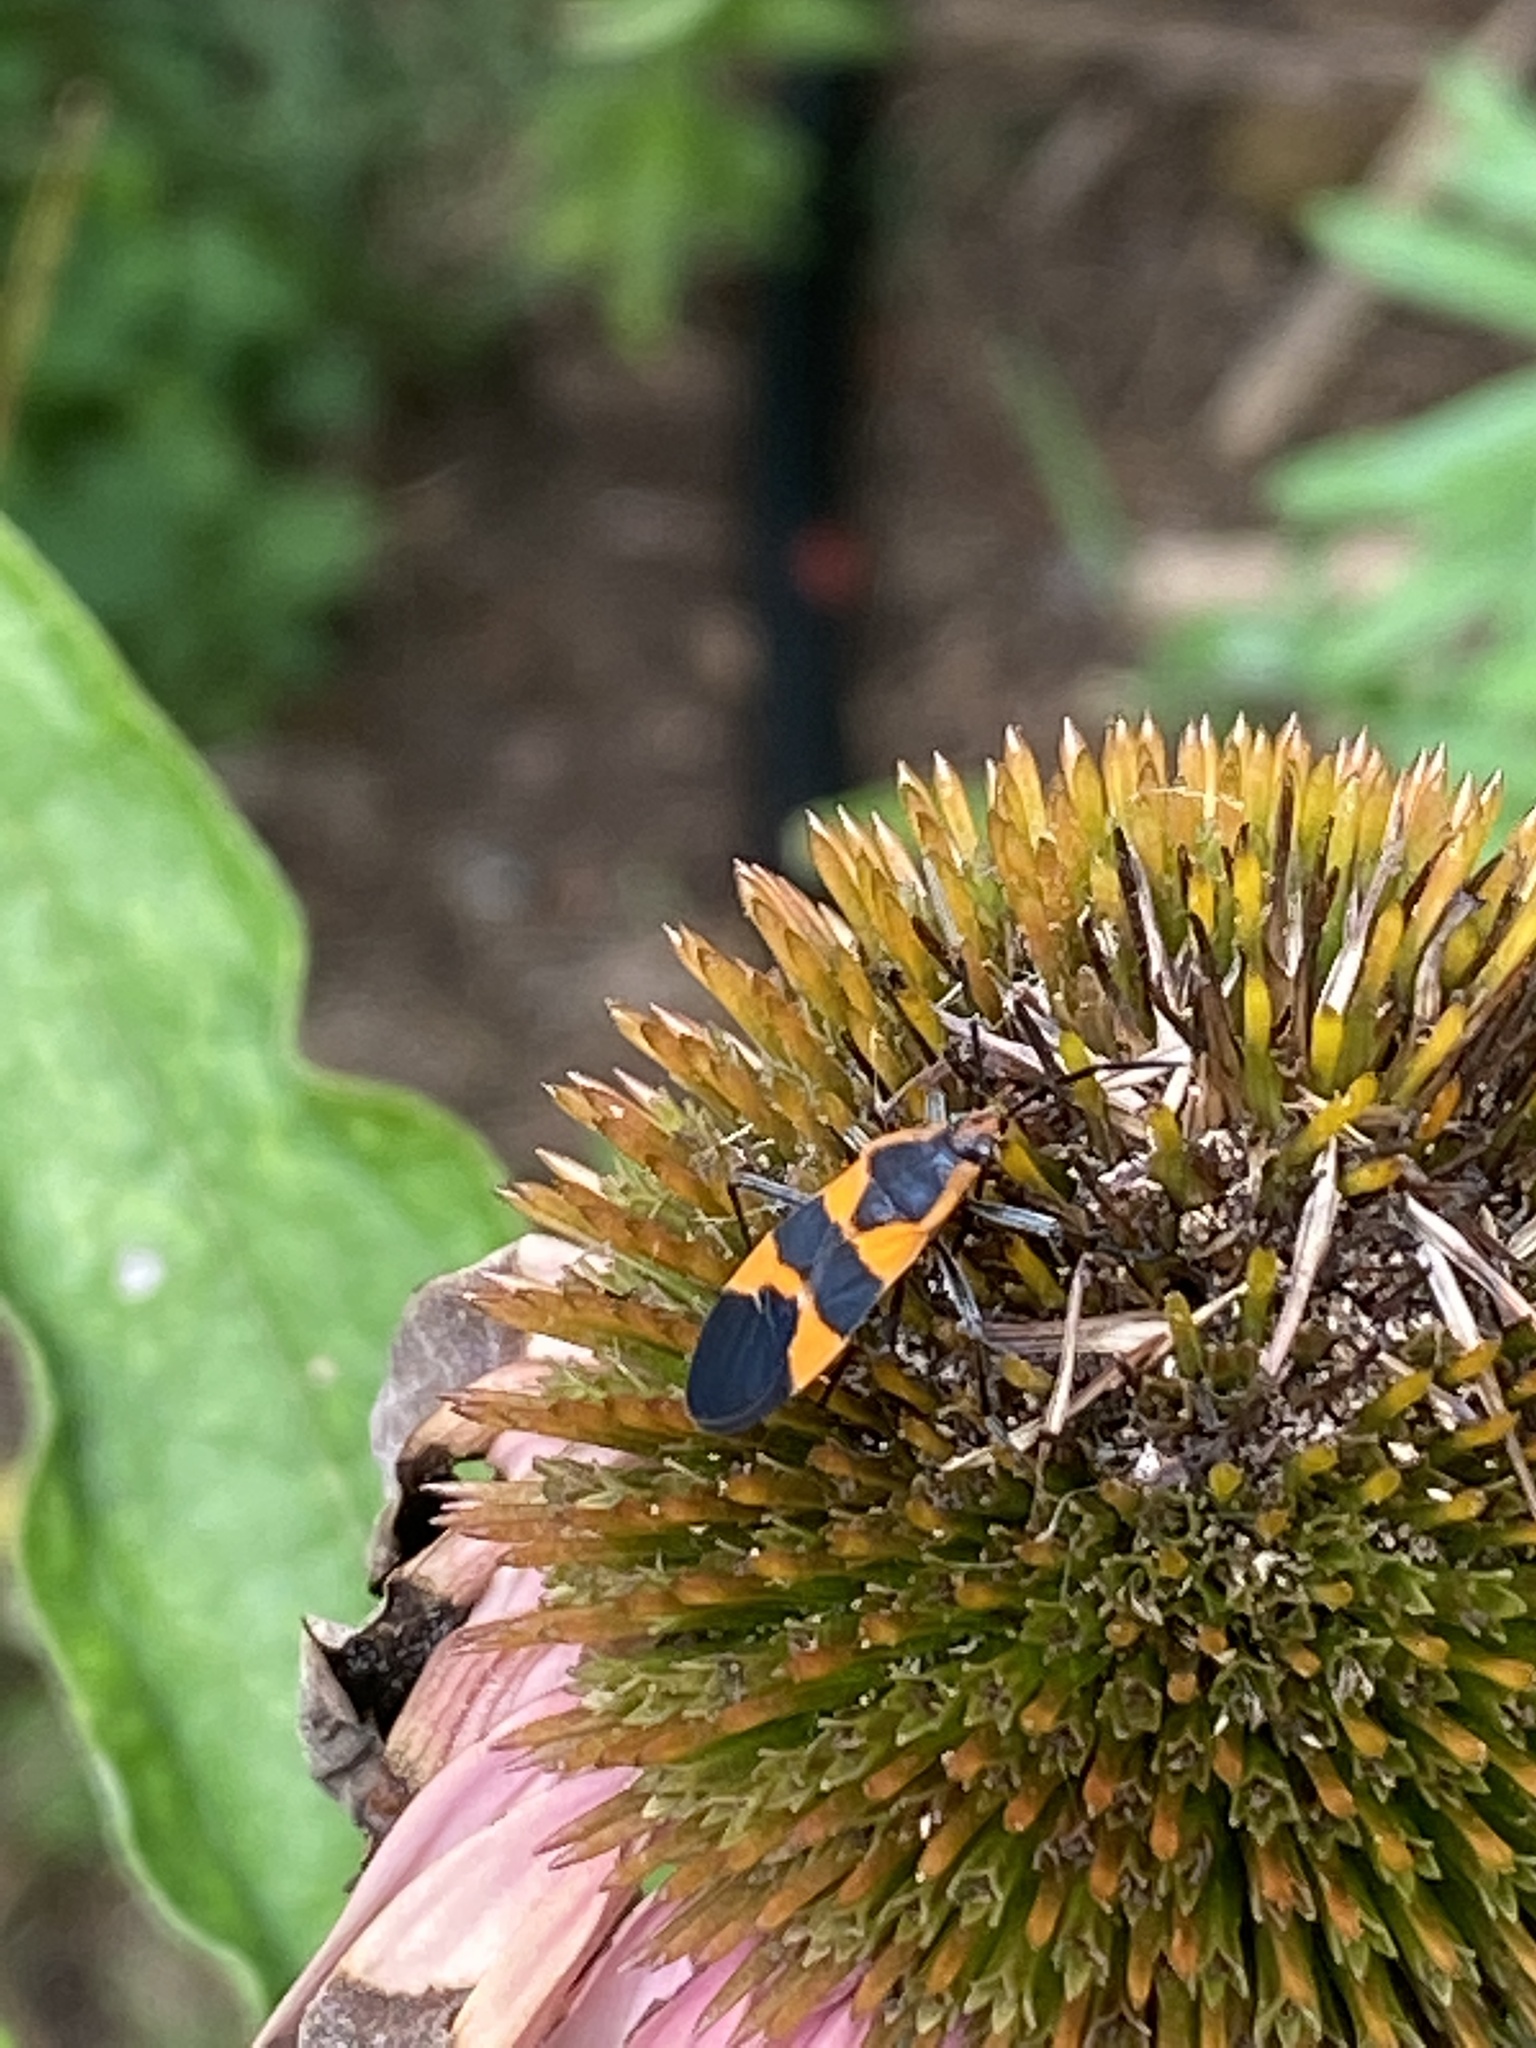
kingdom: Animalia
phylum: Arthropoda
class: Insecta
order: Hemiptera
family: Lygaeidae
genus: Oncopeltus
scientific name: Oncopeltus fasciatus
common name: Large milkweed bug
